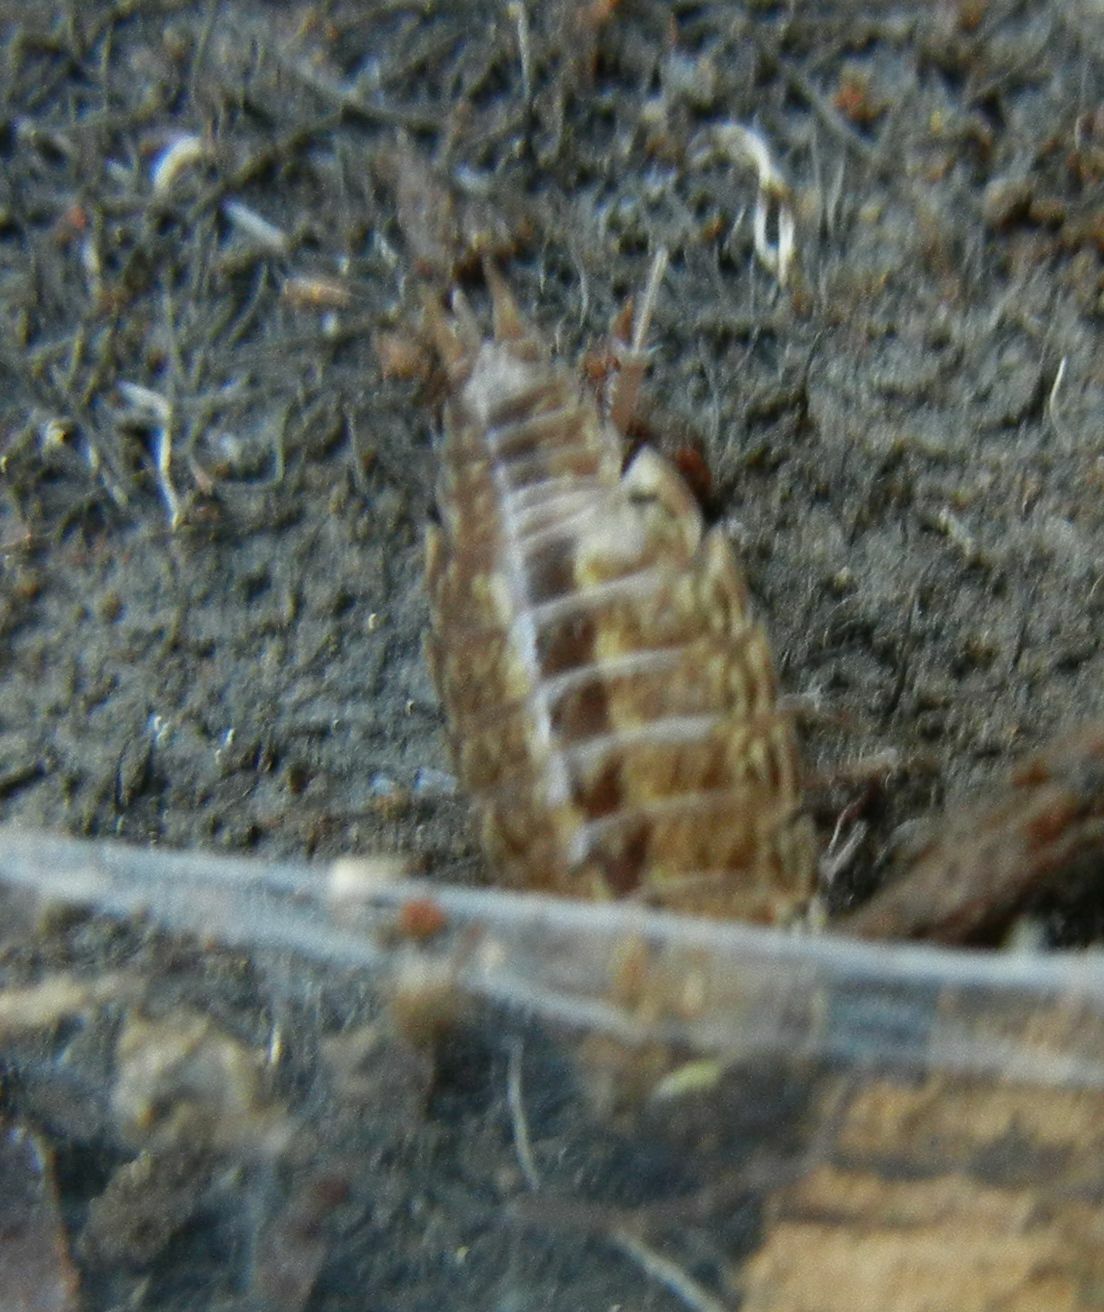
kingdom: Animalia
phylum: Arthropoda
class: Malacostraca
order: Isopoda
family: Philosciidae
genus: Philoscia
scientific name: Philoscia muscorum
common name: Common striped woodlouse
